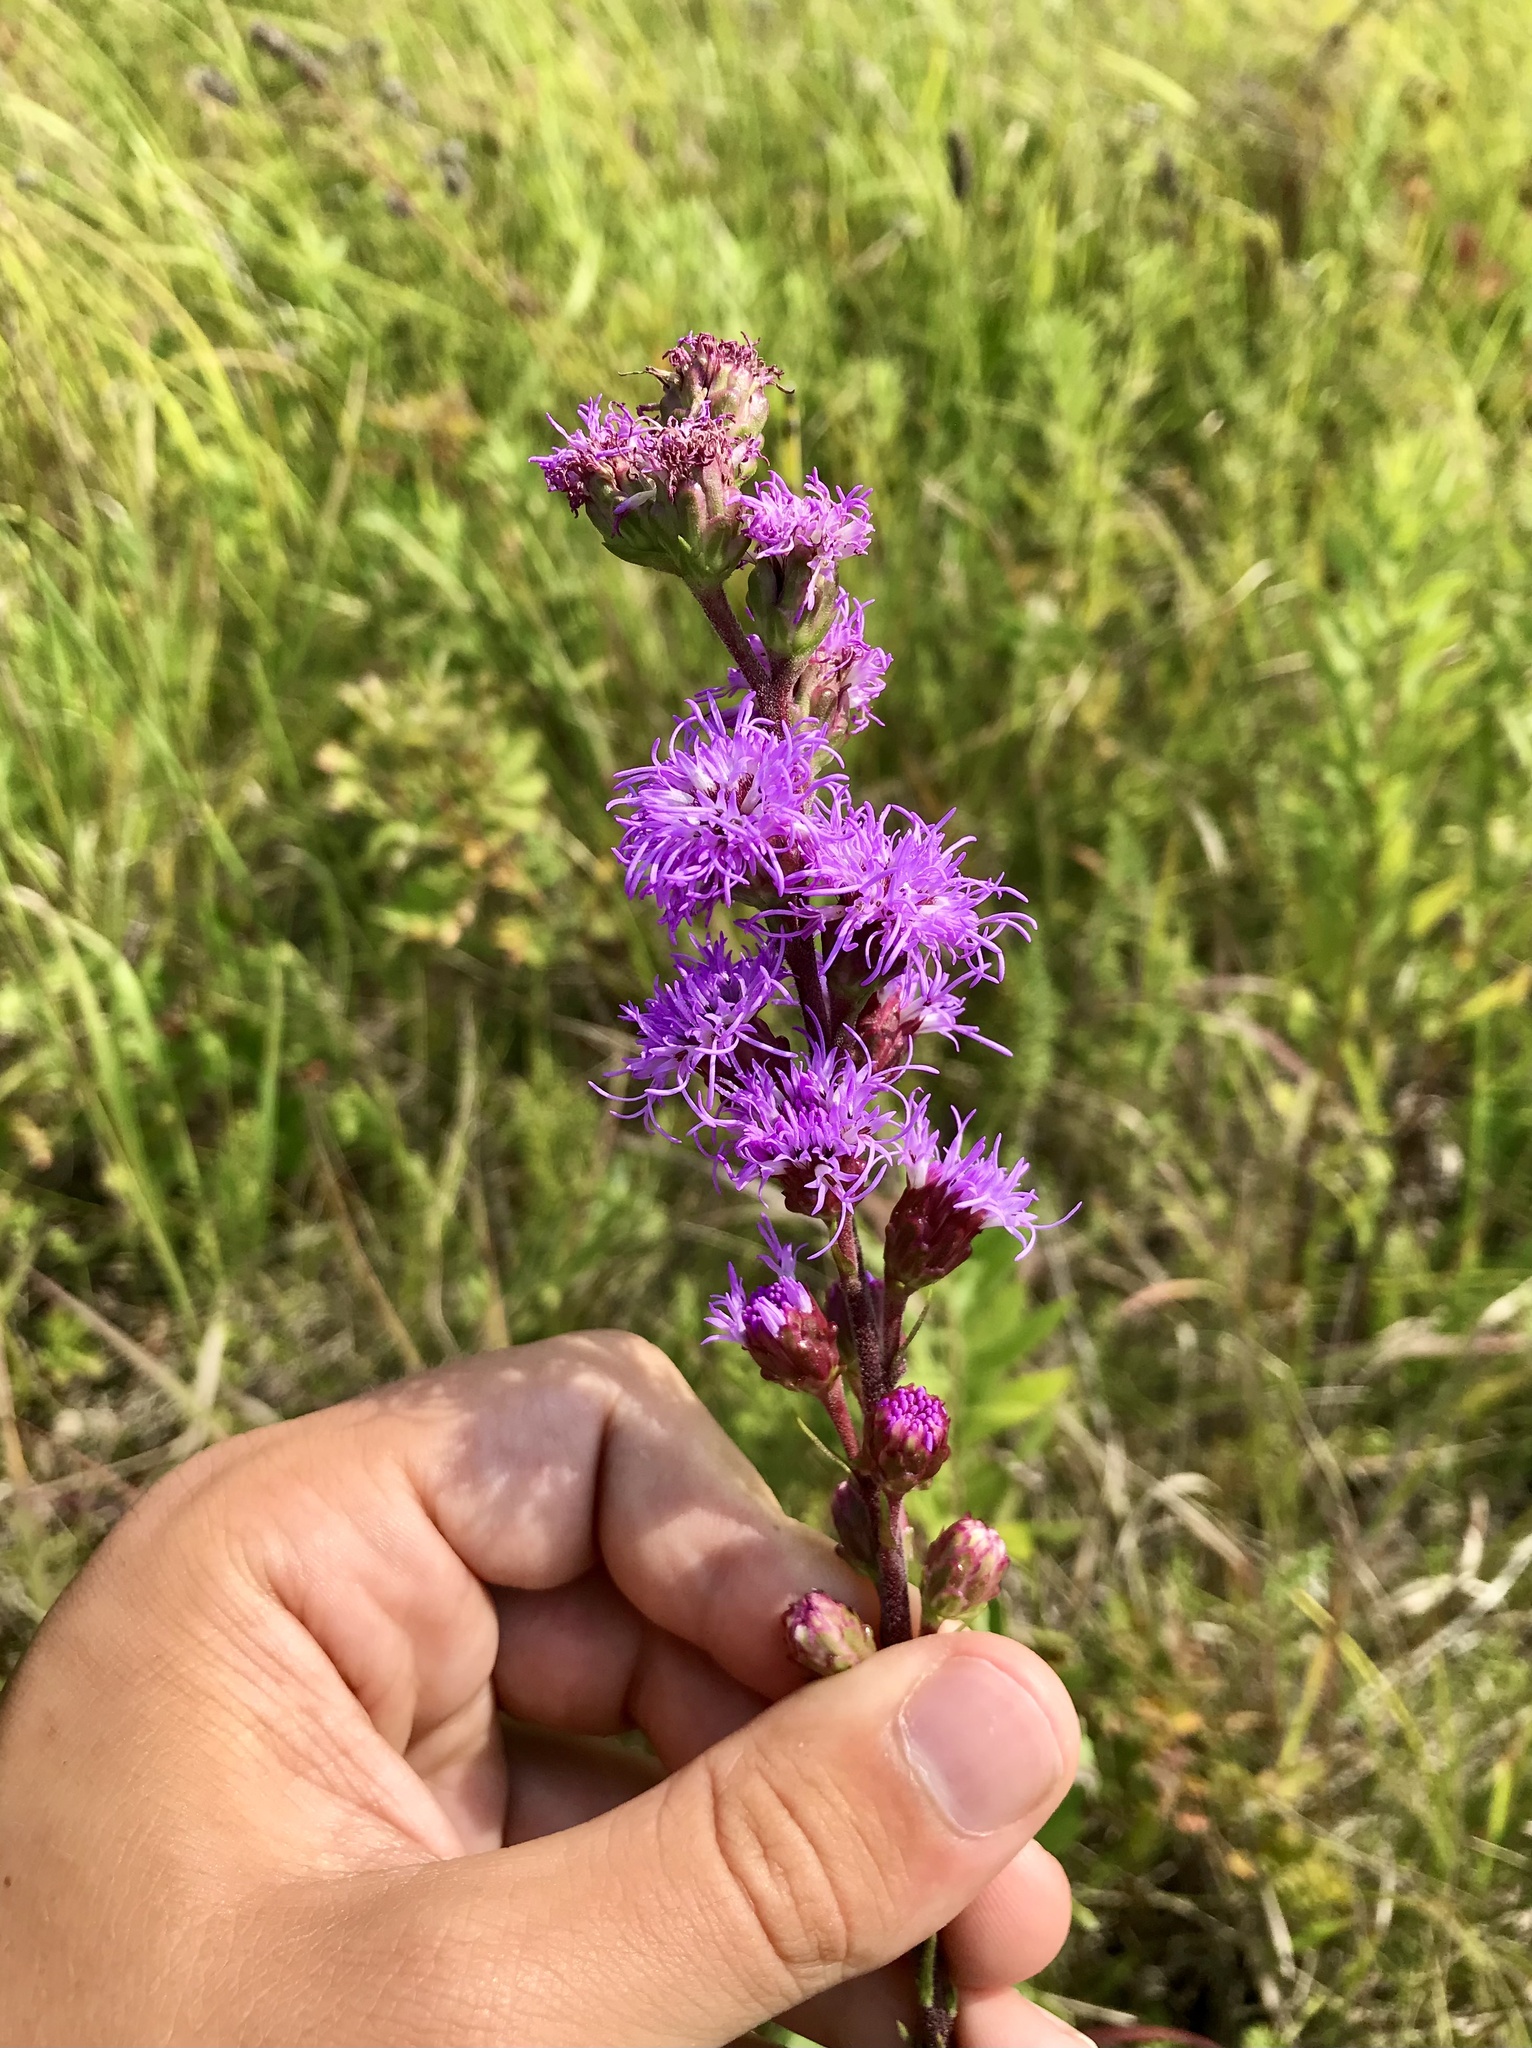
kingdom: Plantae
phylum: Tracheophyta
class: Magnoliopsida
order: Asterales
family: Asteraceae
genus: Liatris
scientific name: Liatris ligulistylis
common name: Northern plains gayfeather
